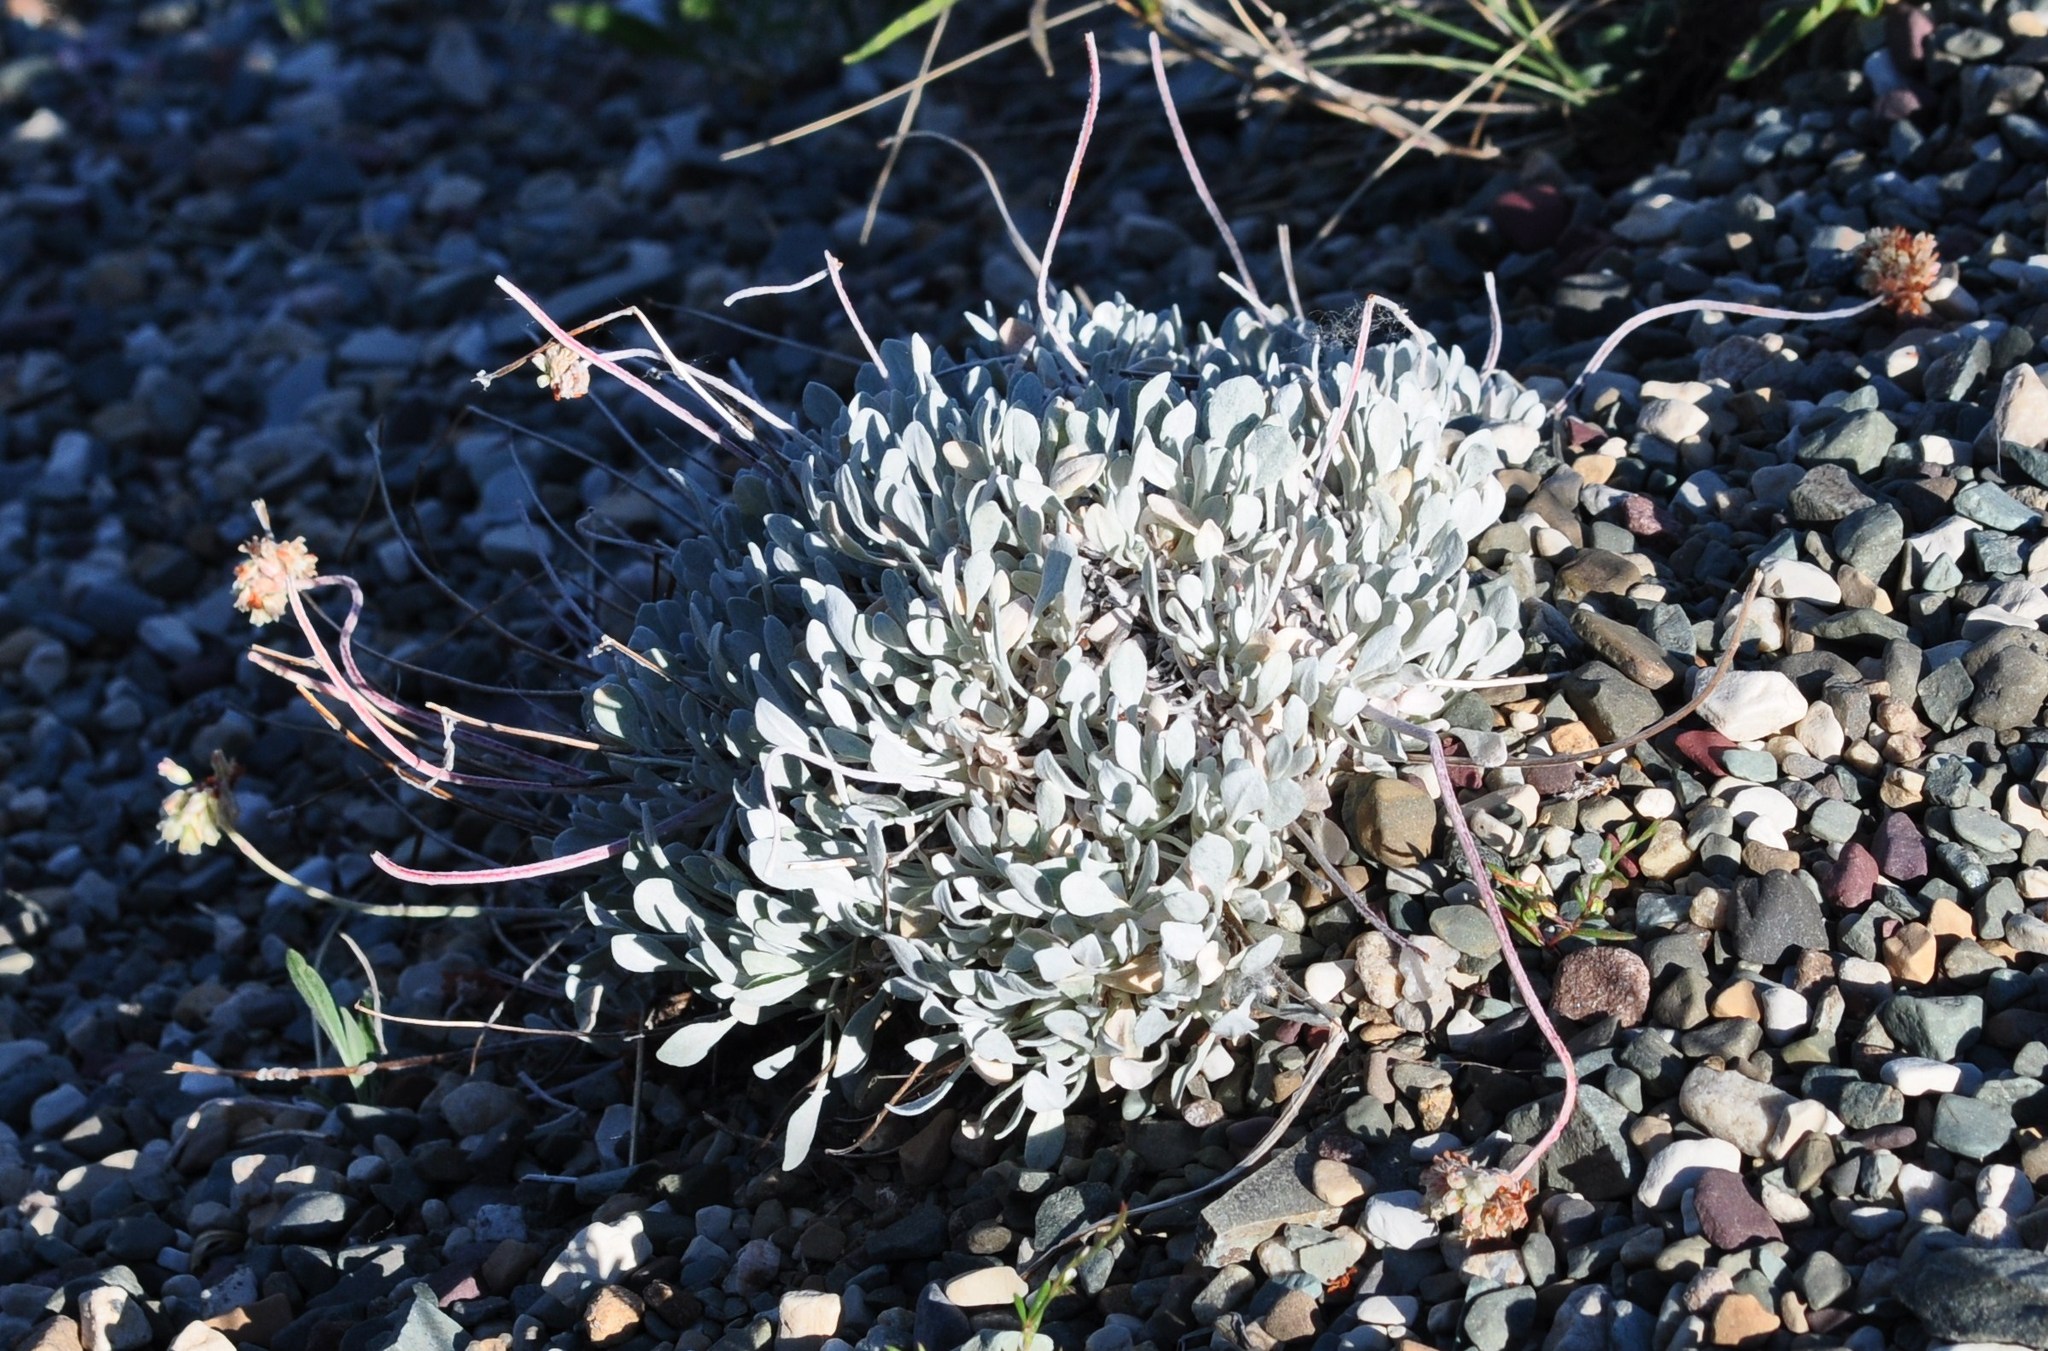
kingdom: Plantae
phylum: Tracheophyta
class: Magnoliopsida
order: Caryophyllales
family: Polygonaceae
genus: Eriogonum
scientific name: Eriogonum ovalifolium
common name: Cushion buckwheat
